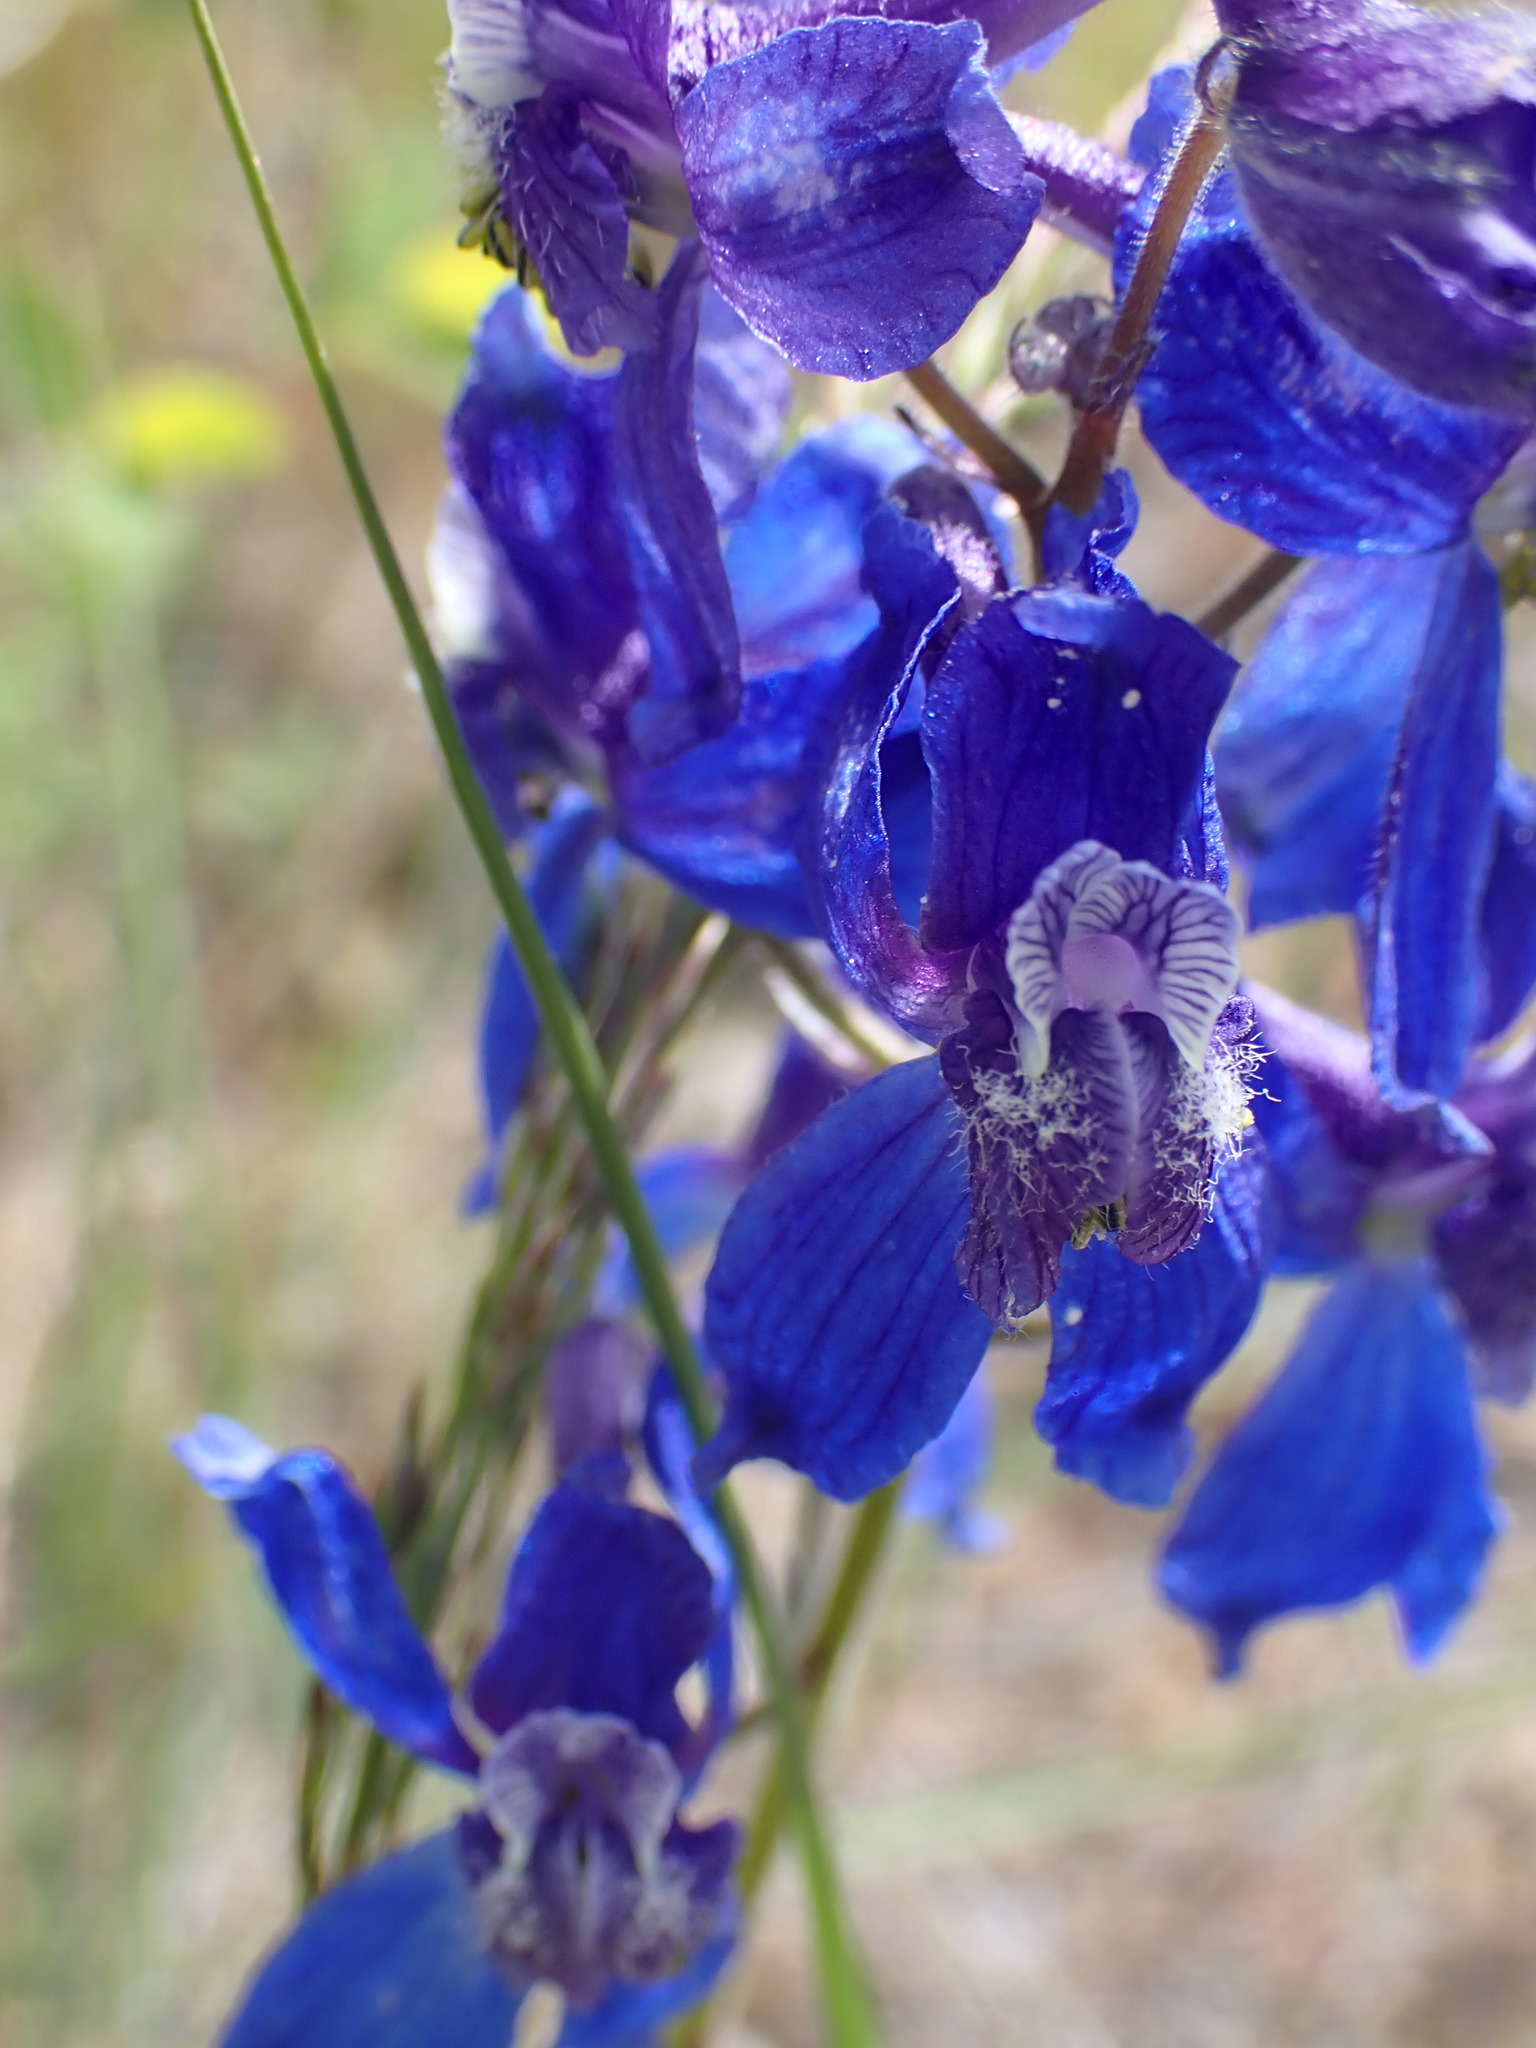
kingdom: Plantae
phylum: Tracheophyta
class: Magnoliopsida
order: Ranunculales
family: Ranunculaceae
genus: Delphinium
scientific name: Delphinium nuttallianum
